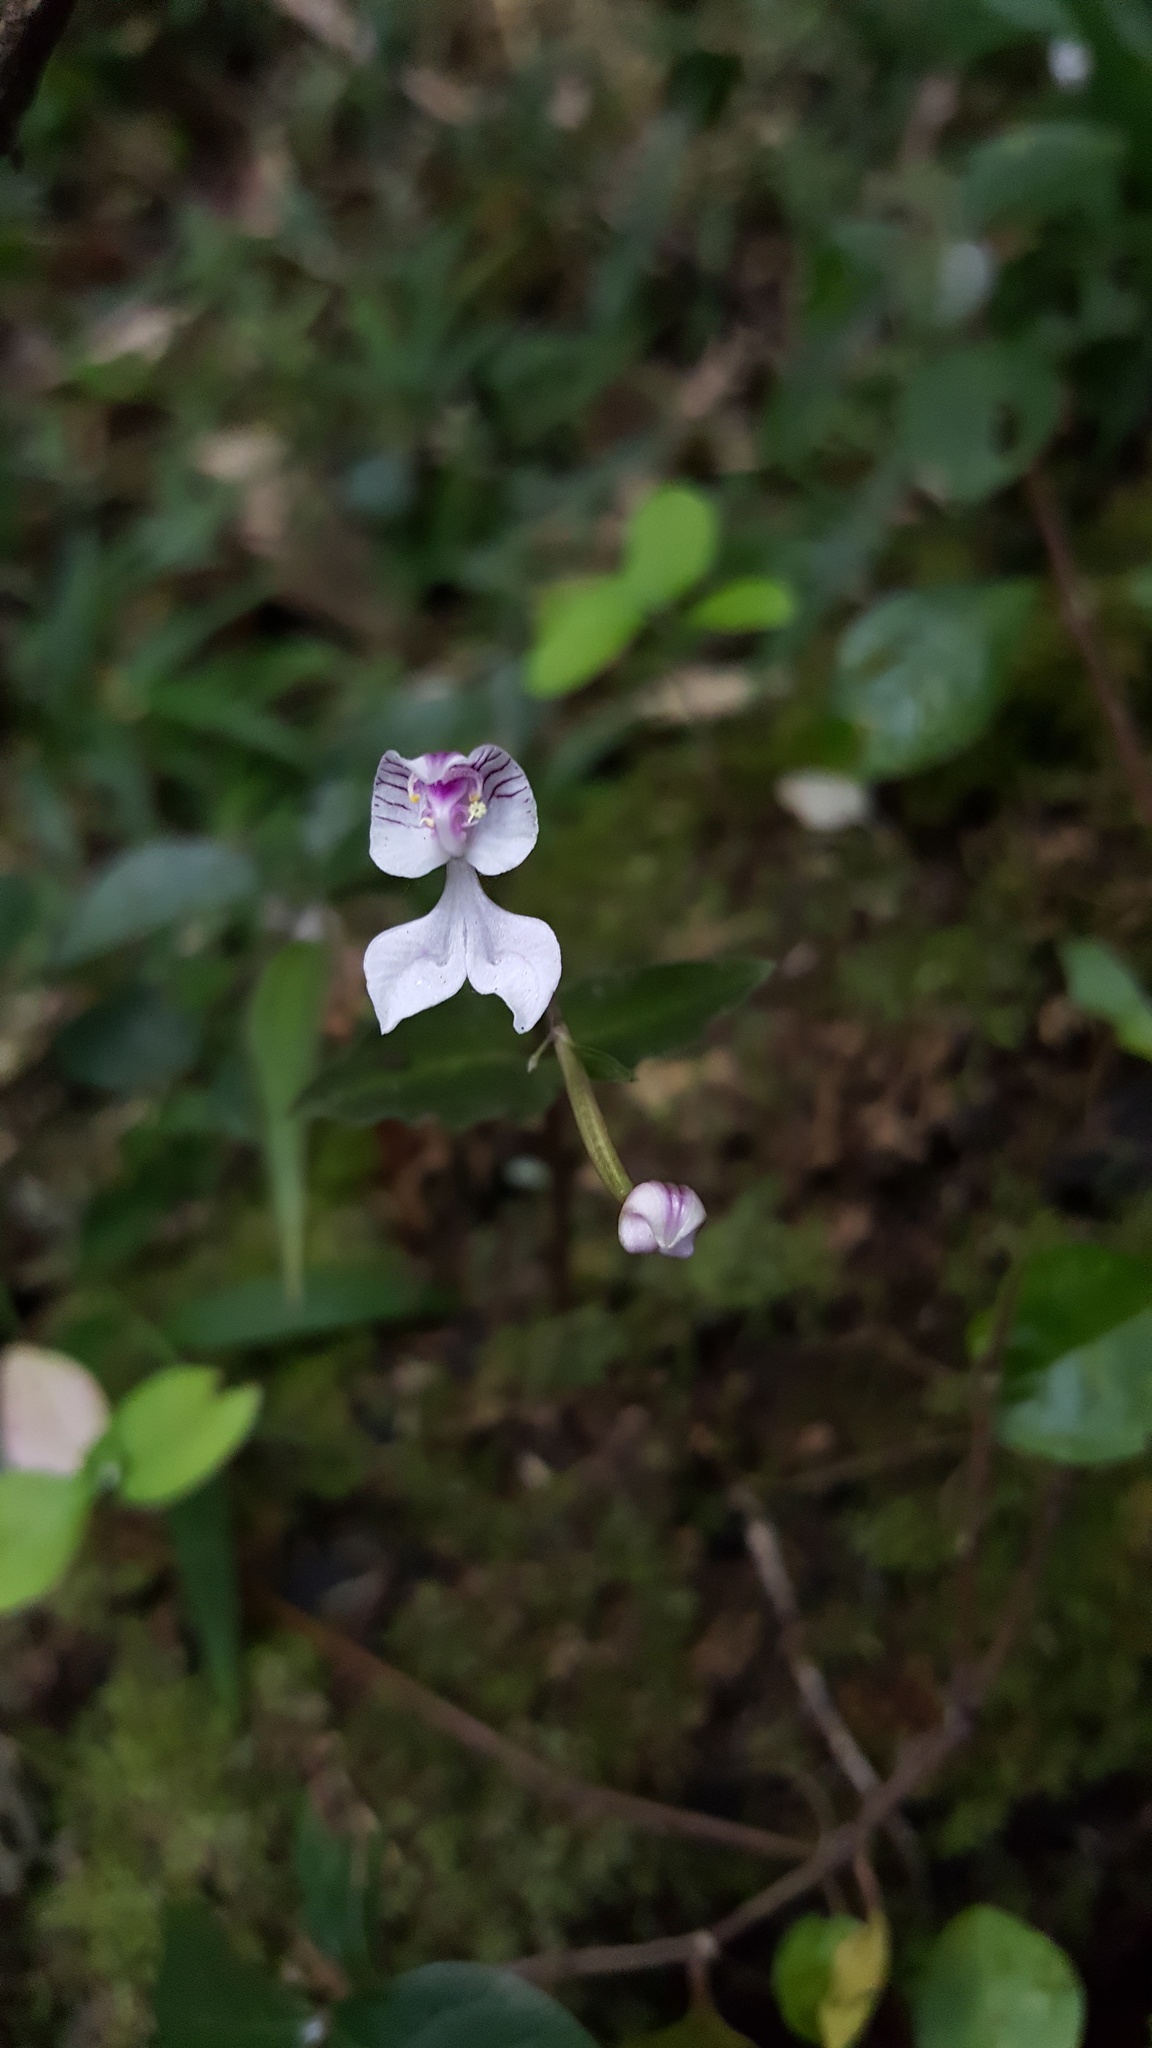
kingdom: Plantae
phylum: Tracheophyta
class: Liliopsida
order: Asparagales
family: Orchidaceae
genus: Disperis
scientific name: Disperis oppositifolia
